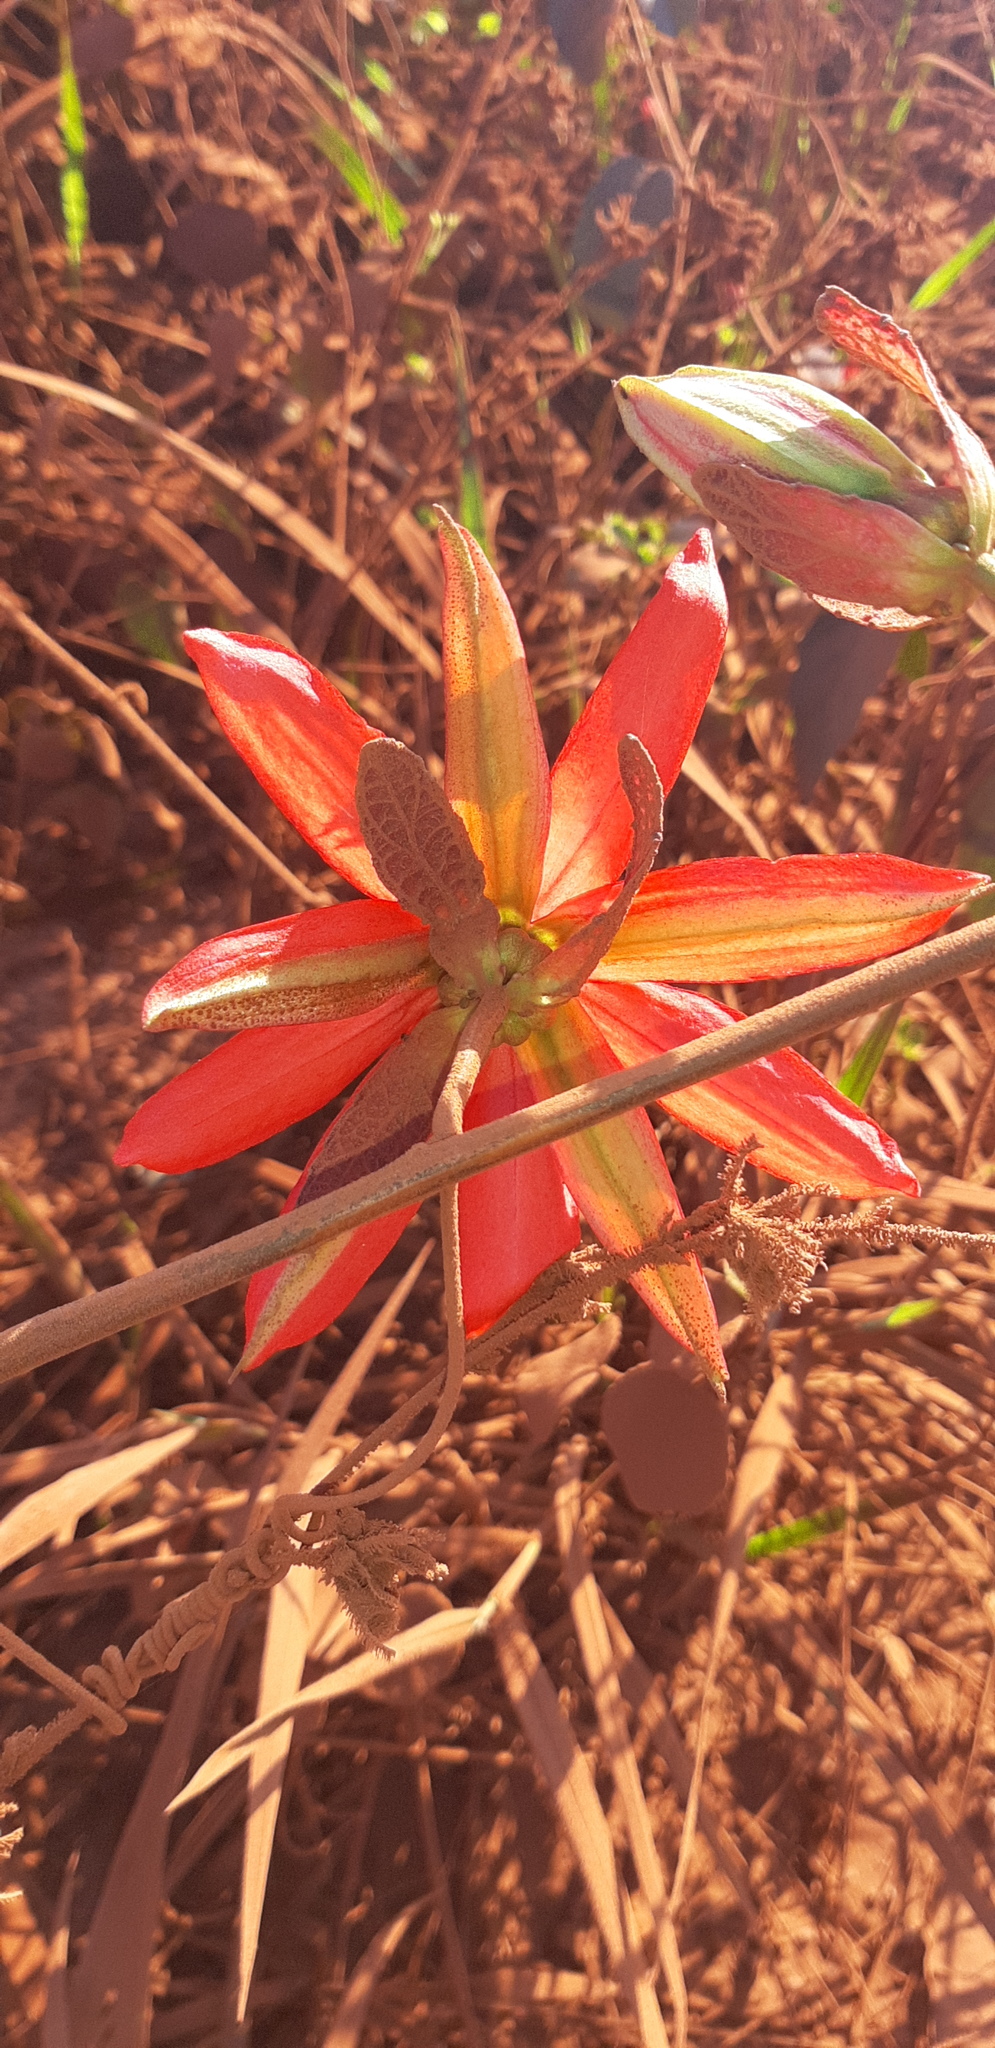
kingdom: Plantae
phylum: Tracheophyta
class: Magnoliopsida
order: Malpighiales
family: Passifloraceae
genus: Passiflora
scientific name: Passiflora miniata
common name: Red granadilla
